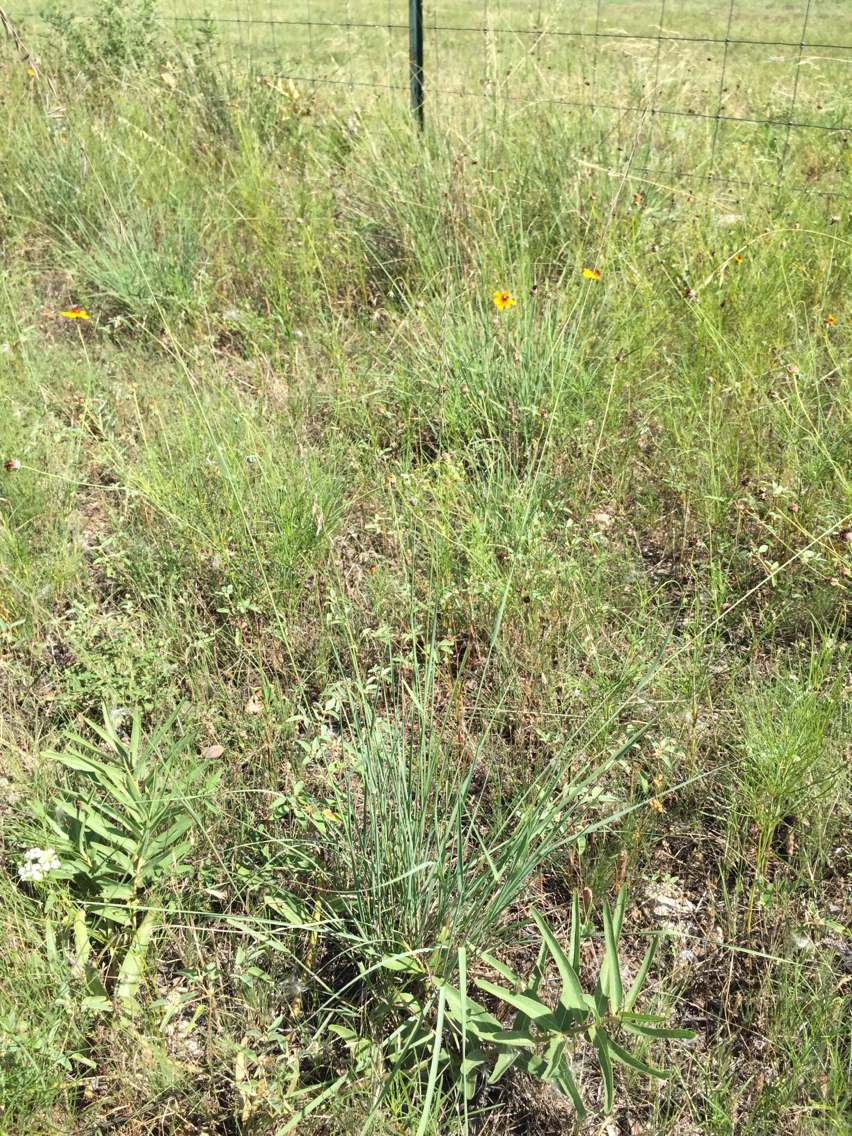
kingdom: Plantae
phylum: Tracheophyta
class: Liliopsida
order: Poales
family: Poaceae
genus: Bouteloua
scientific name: Bouteloua curtipendula
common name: Side-oats grama
